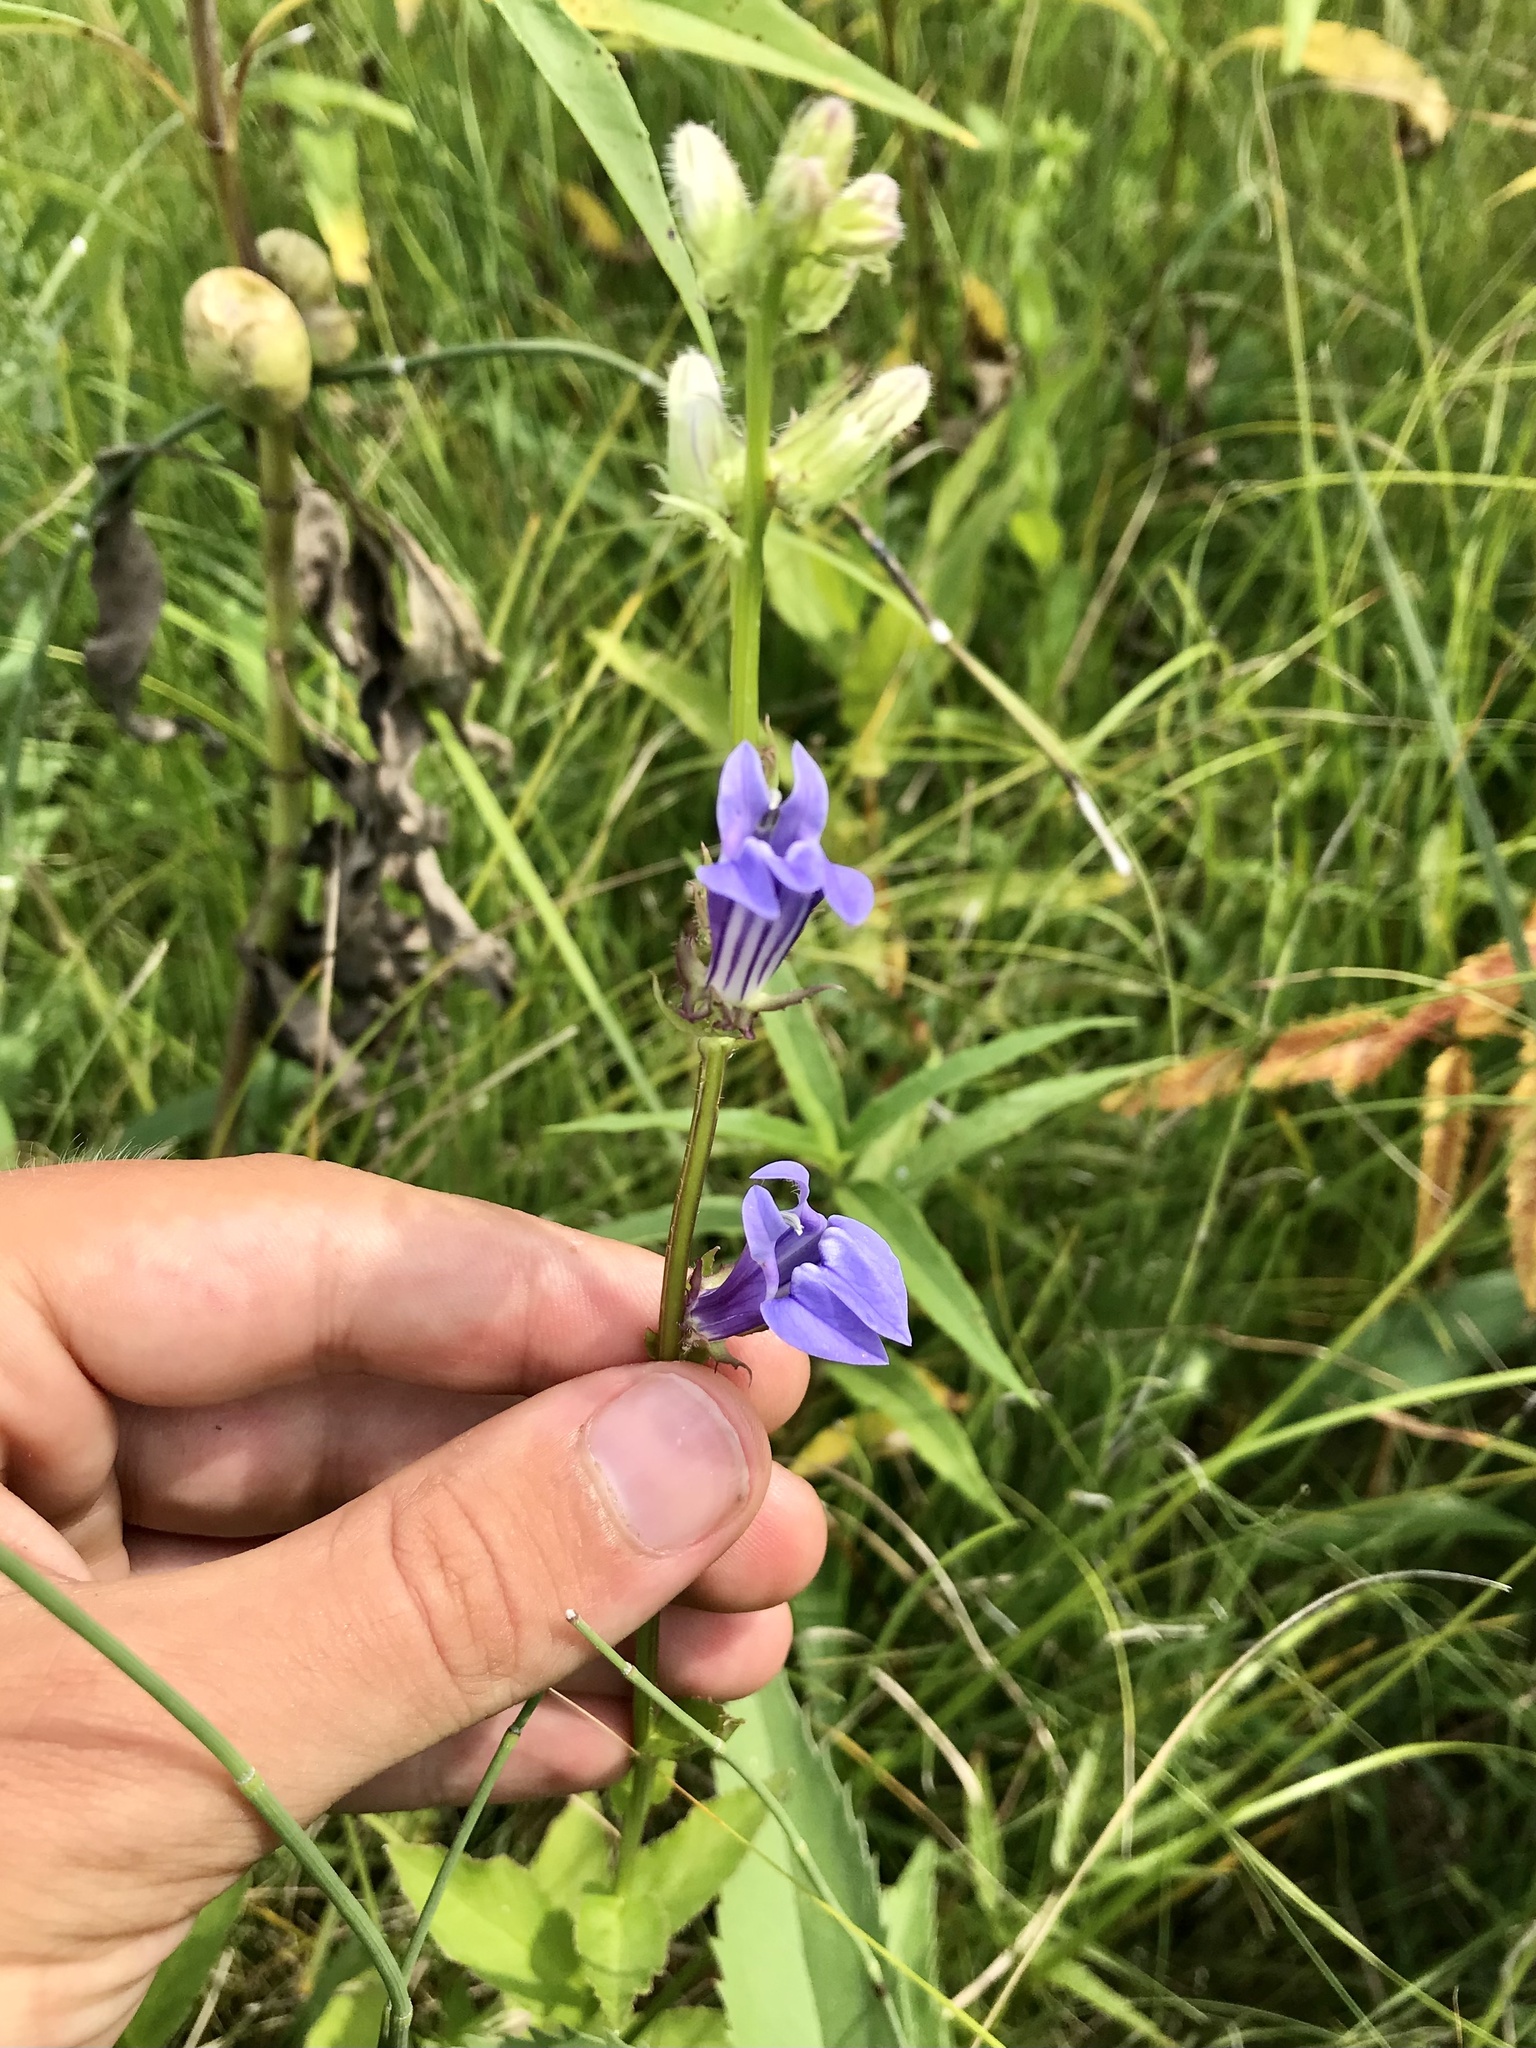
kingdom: Plantae
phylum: Tracheophyta
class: Magnoliopsida
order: Asterales
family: Campanulaceae
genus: Lobelia
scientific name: Lobelia siphilitica
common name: Great lobelia
